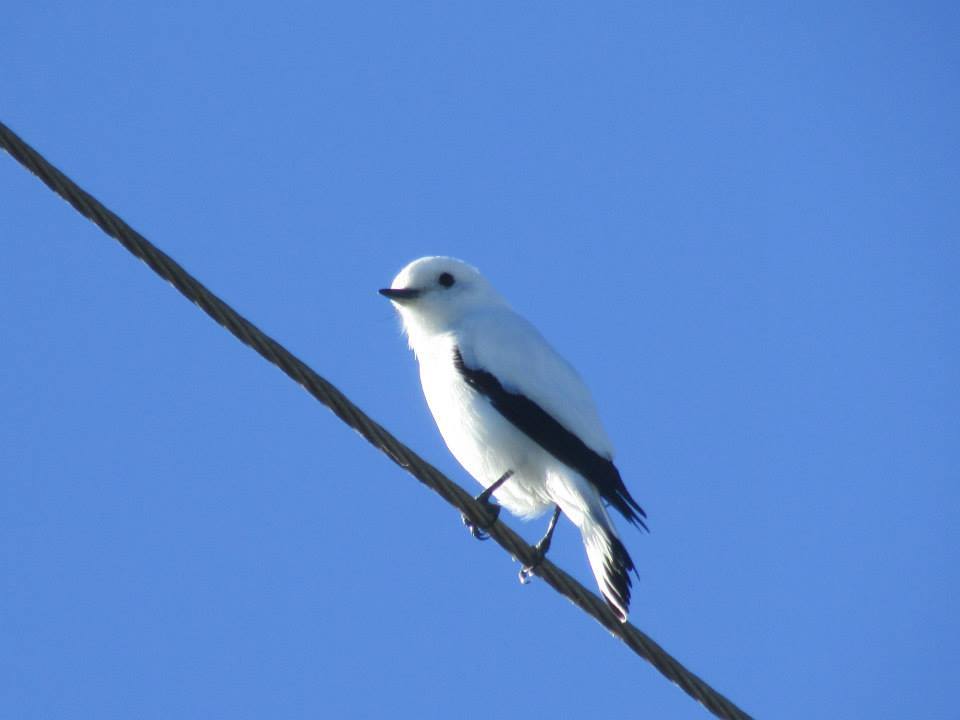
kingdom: Animalia
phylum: Chordata
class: Aves
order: Passeriformes
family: Tyrannidae
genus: Xolmis
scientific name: Xolmis irupero
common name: White monjita
